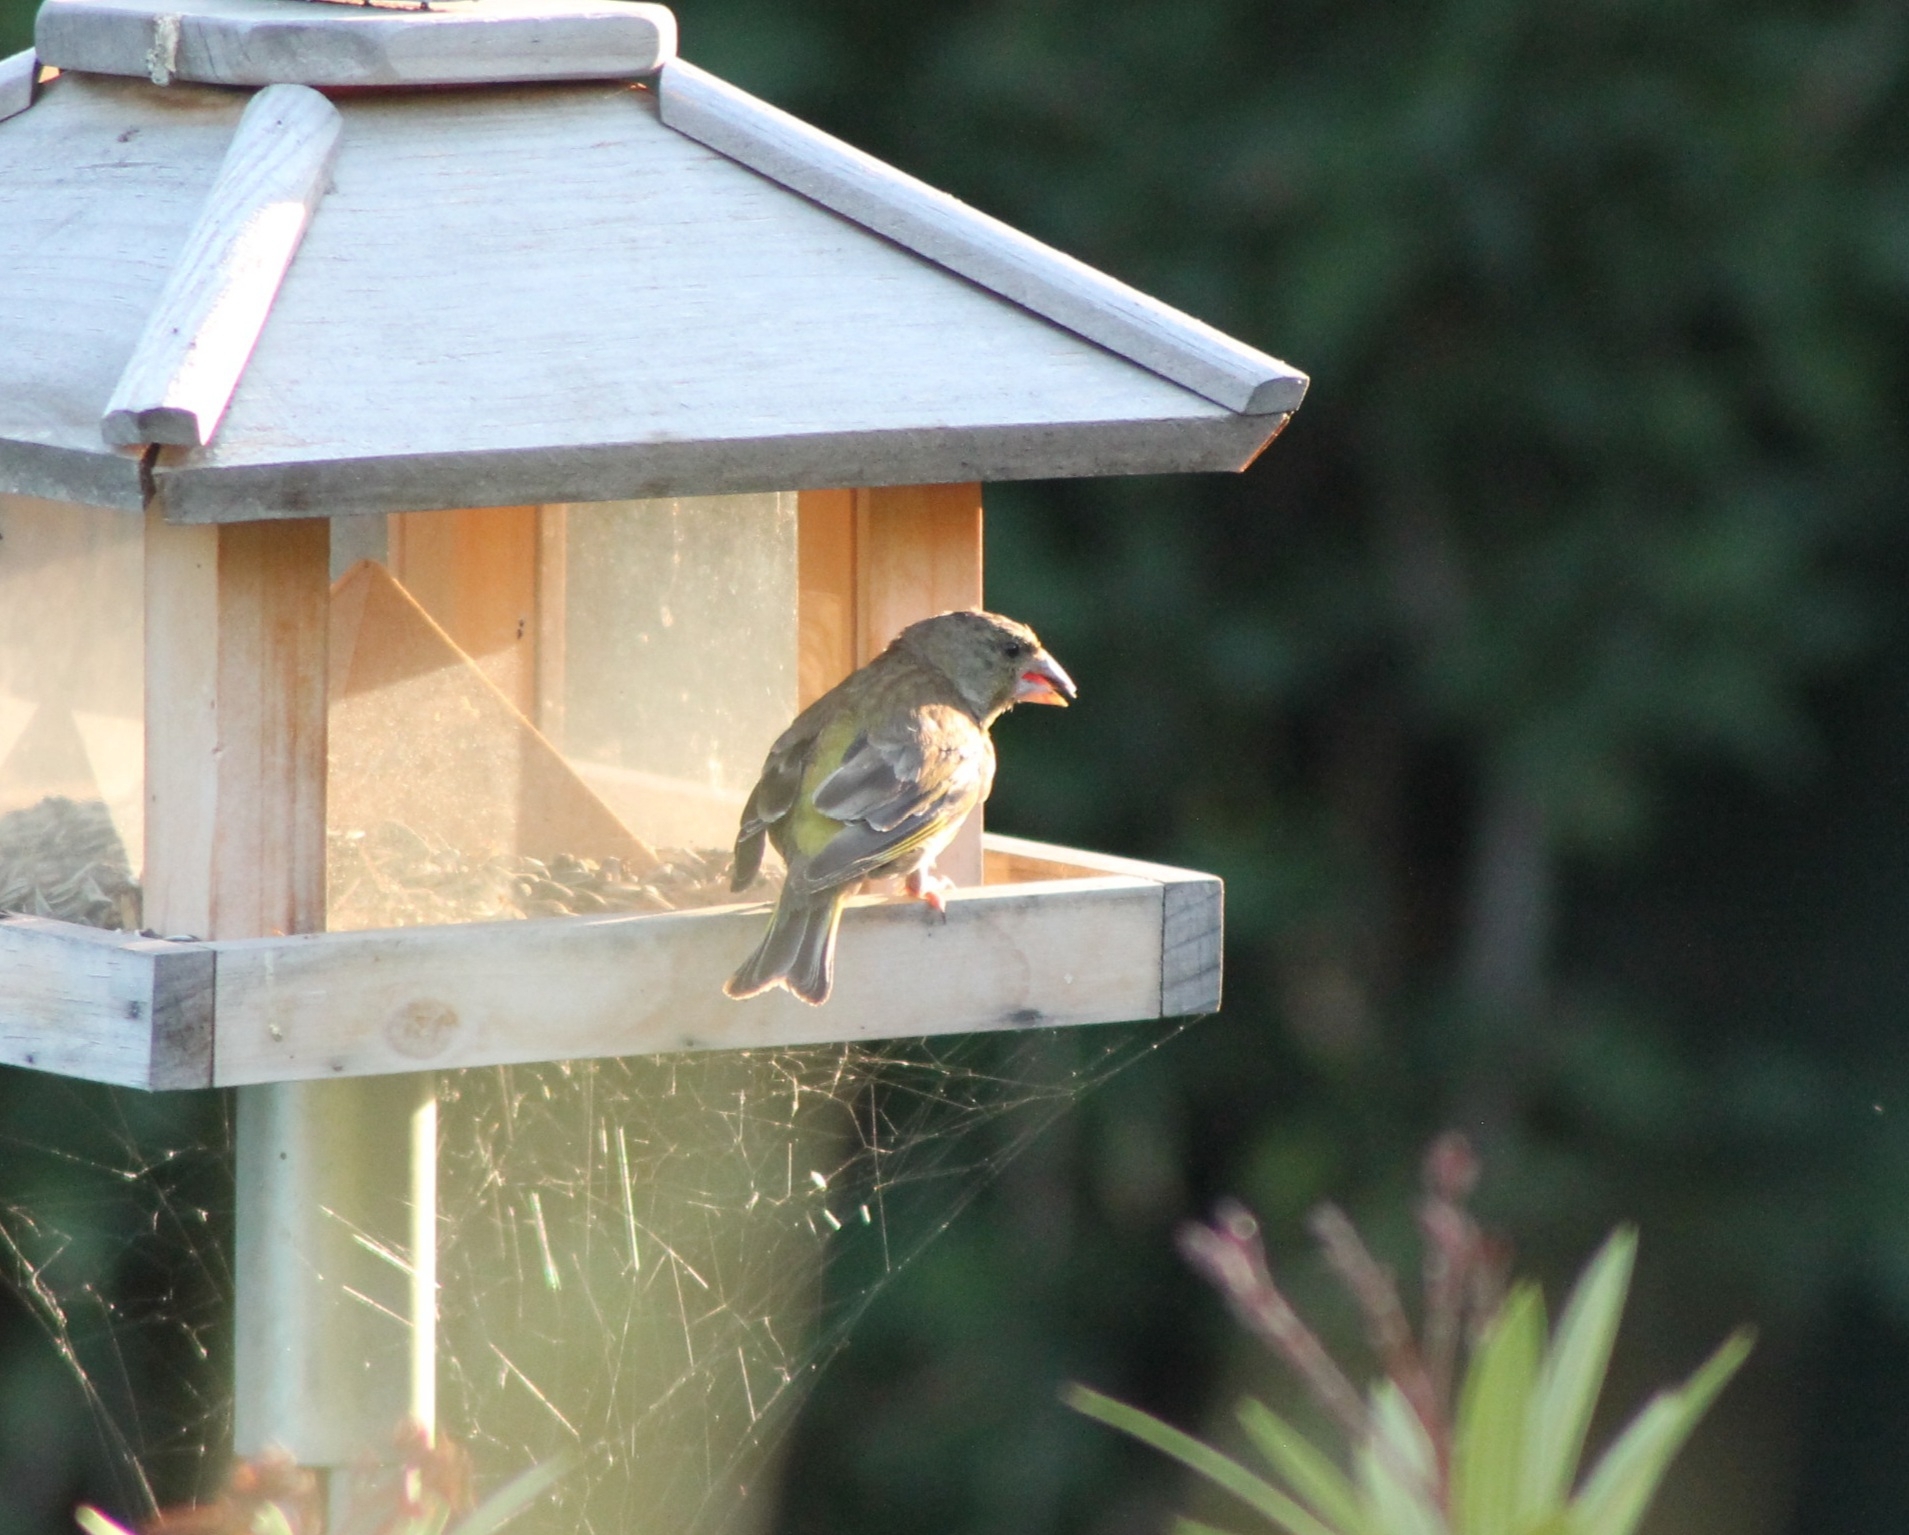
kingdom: Plantae
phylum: Tracheophyta
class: Liliopsida
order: Poales
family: Poaceae
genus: Chloris
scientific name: Chloris chloris
